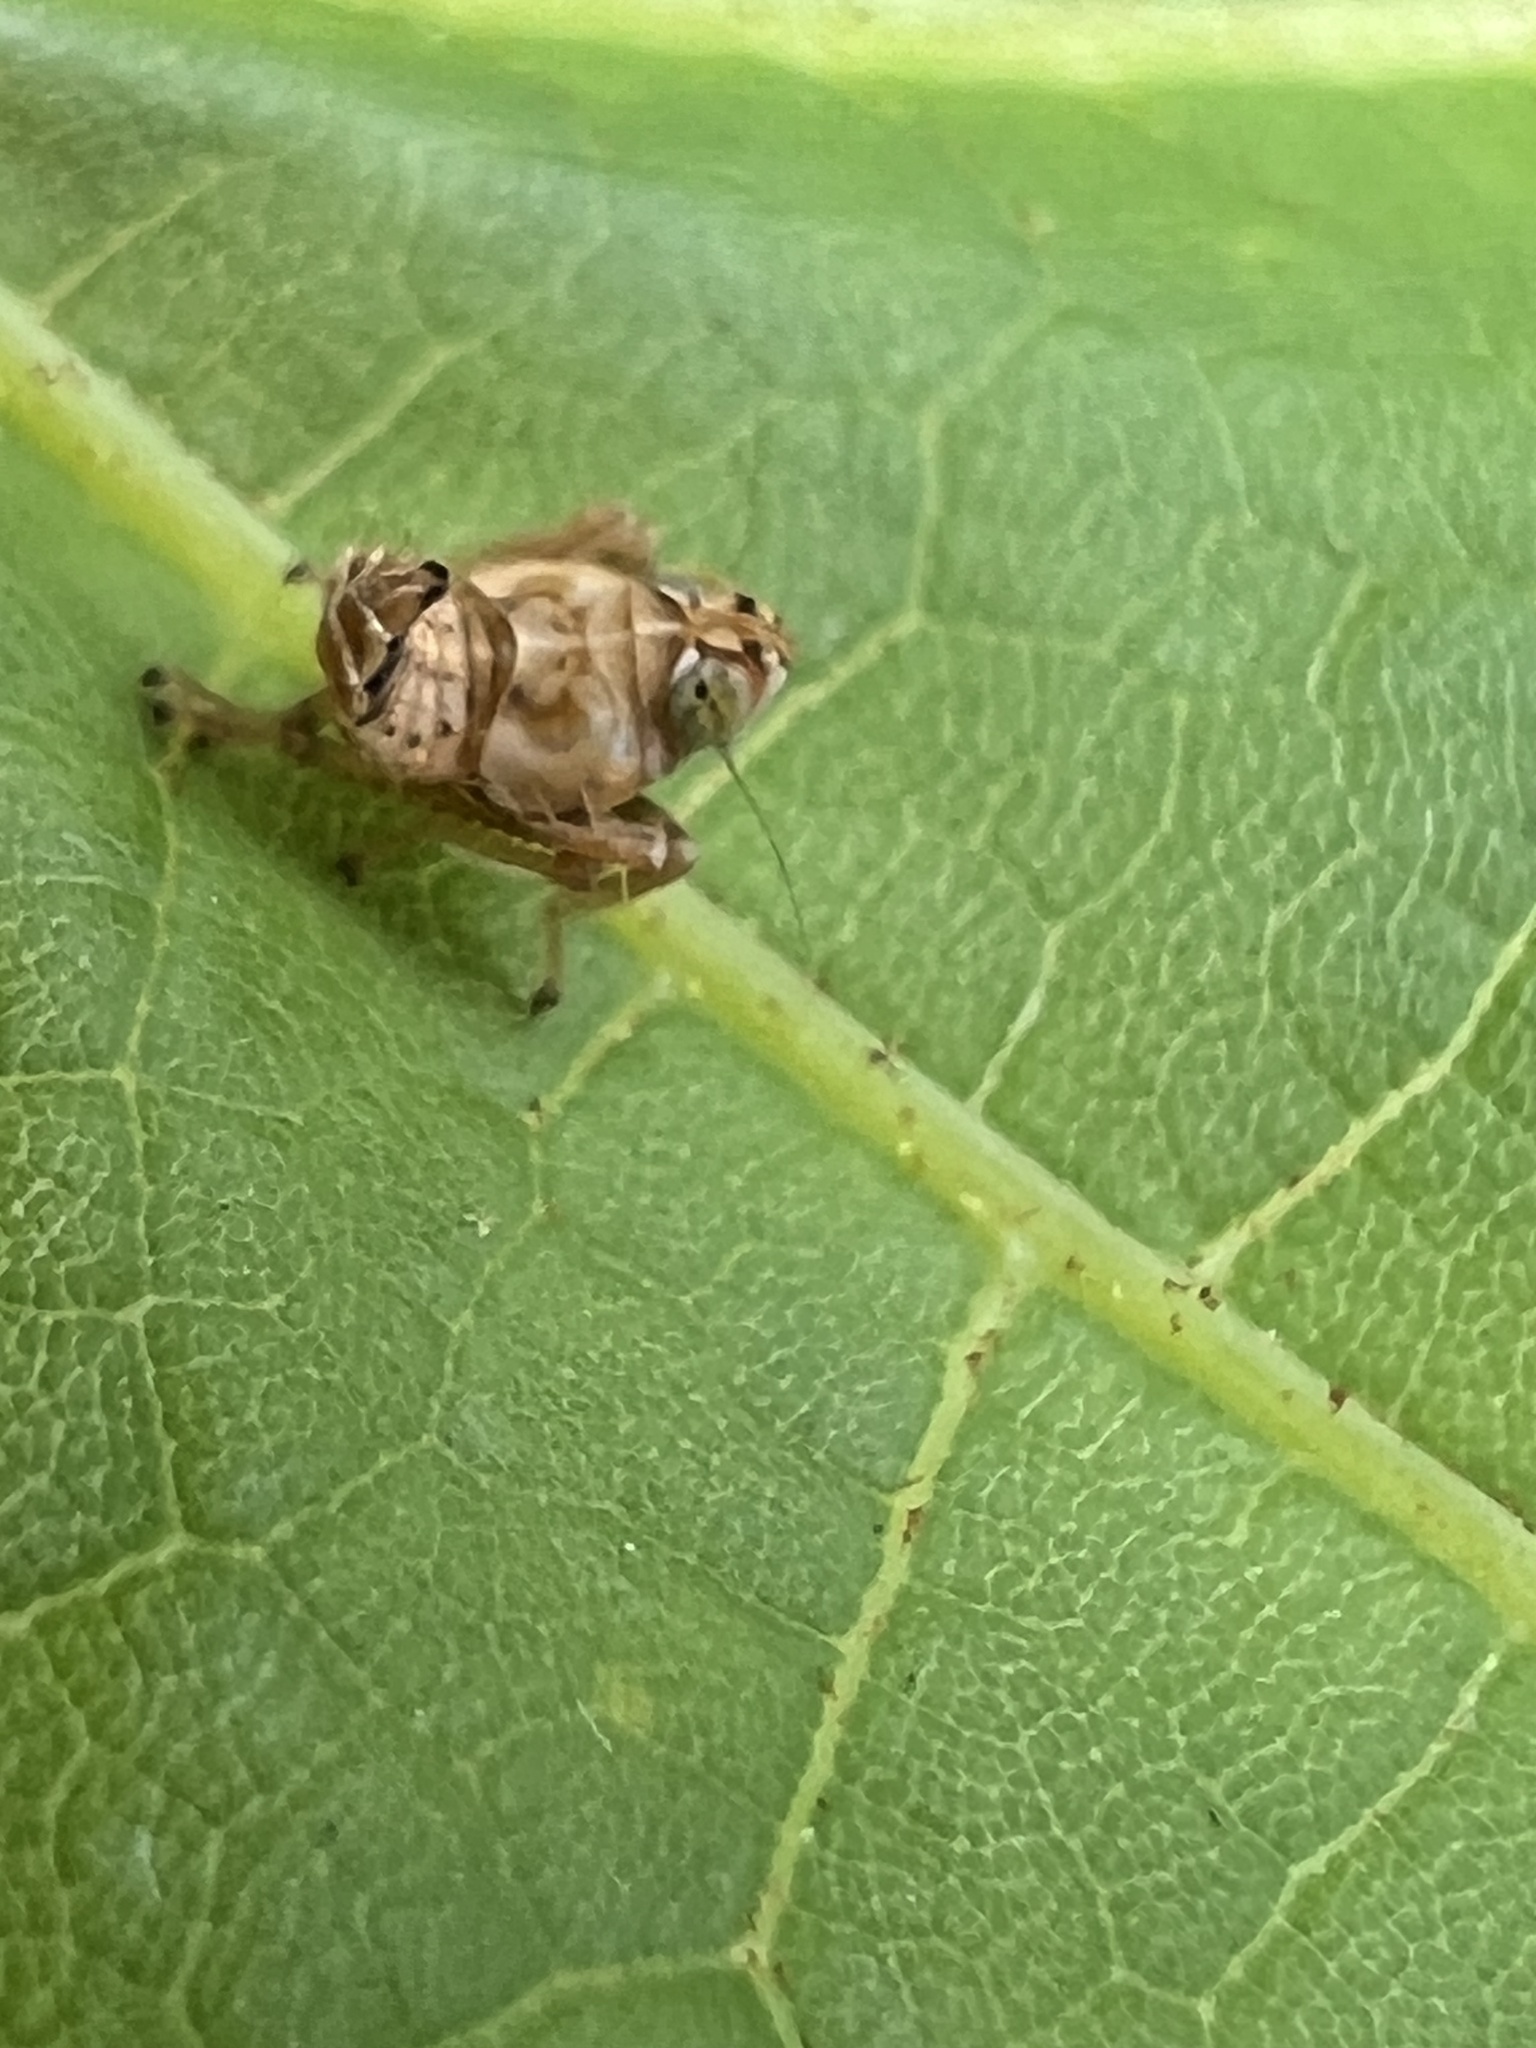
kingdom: Animalia
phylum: Arthropoda
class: Insecta
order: Hemiptera
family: Cicadellidae
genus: Jikradia
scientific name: Jikradia olitoria
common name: Coppery leafhopper
